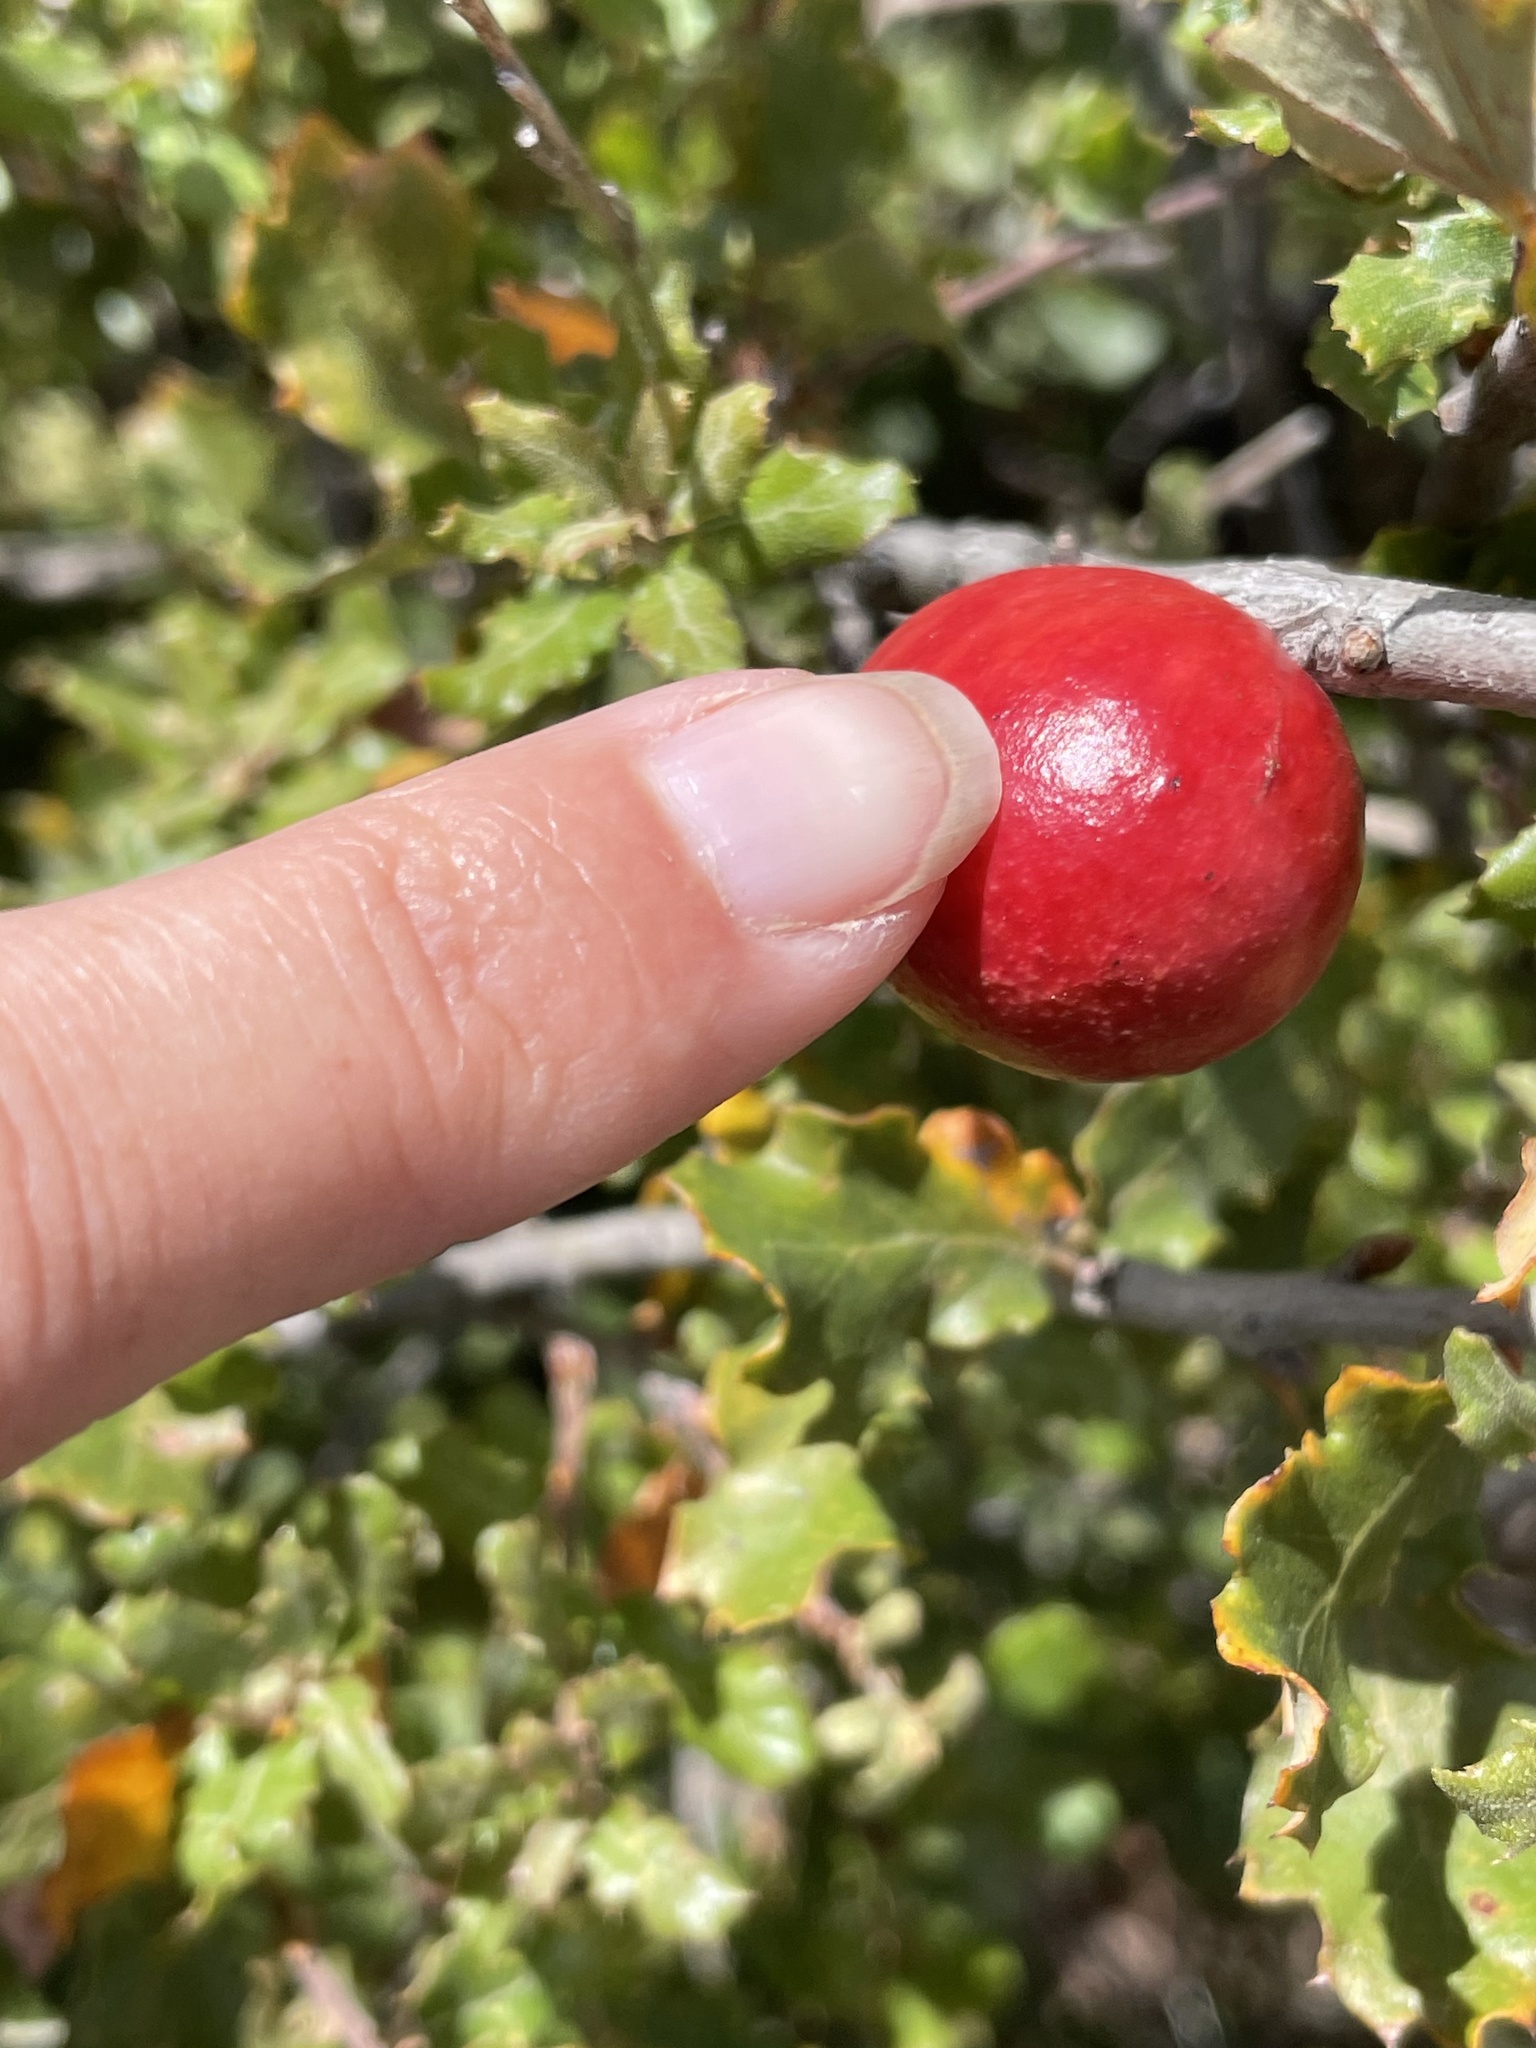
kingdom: Animalia
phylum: Arthropoda
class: Insecta
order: Hymenoptera
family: Cynipidae
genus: Andricus
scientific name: Andricus quercuscalifornicus
